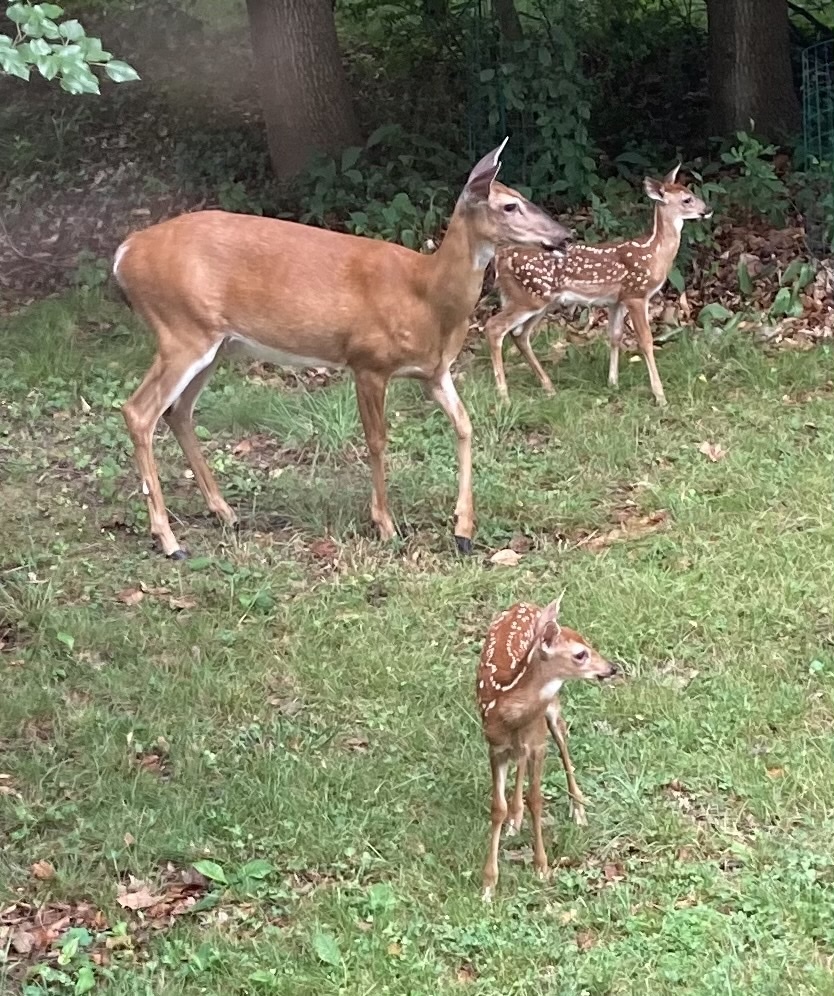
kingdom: Animalia
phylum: Chordata
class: Mammalia
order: Artiodactyla
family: Cervidae
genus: Odocoileus
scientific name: Odocoileus virginianus
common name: White-tailed deer
